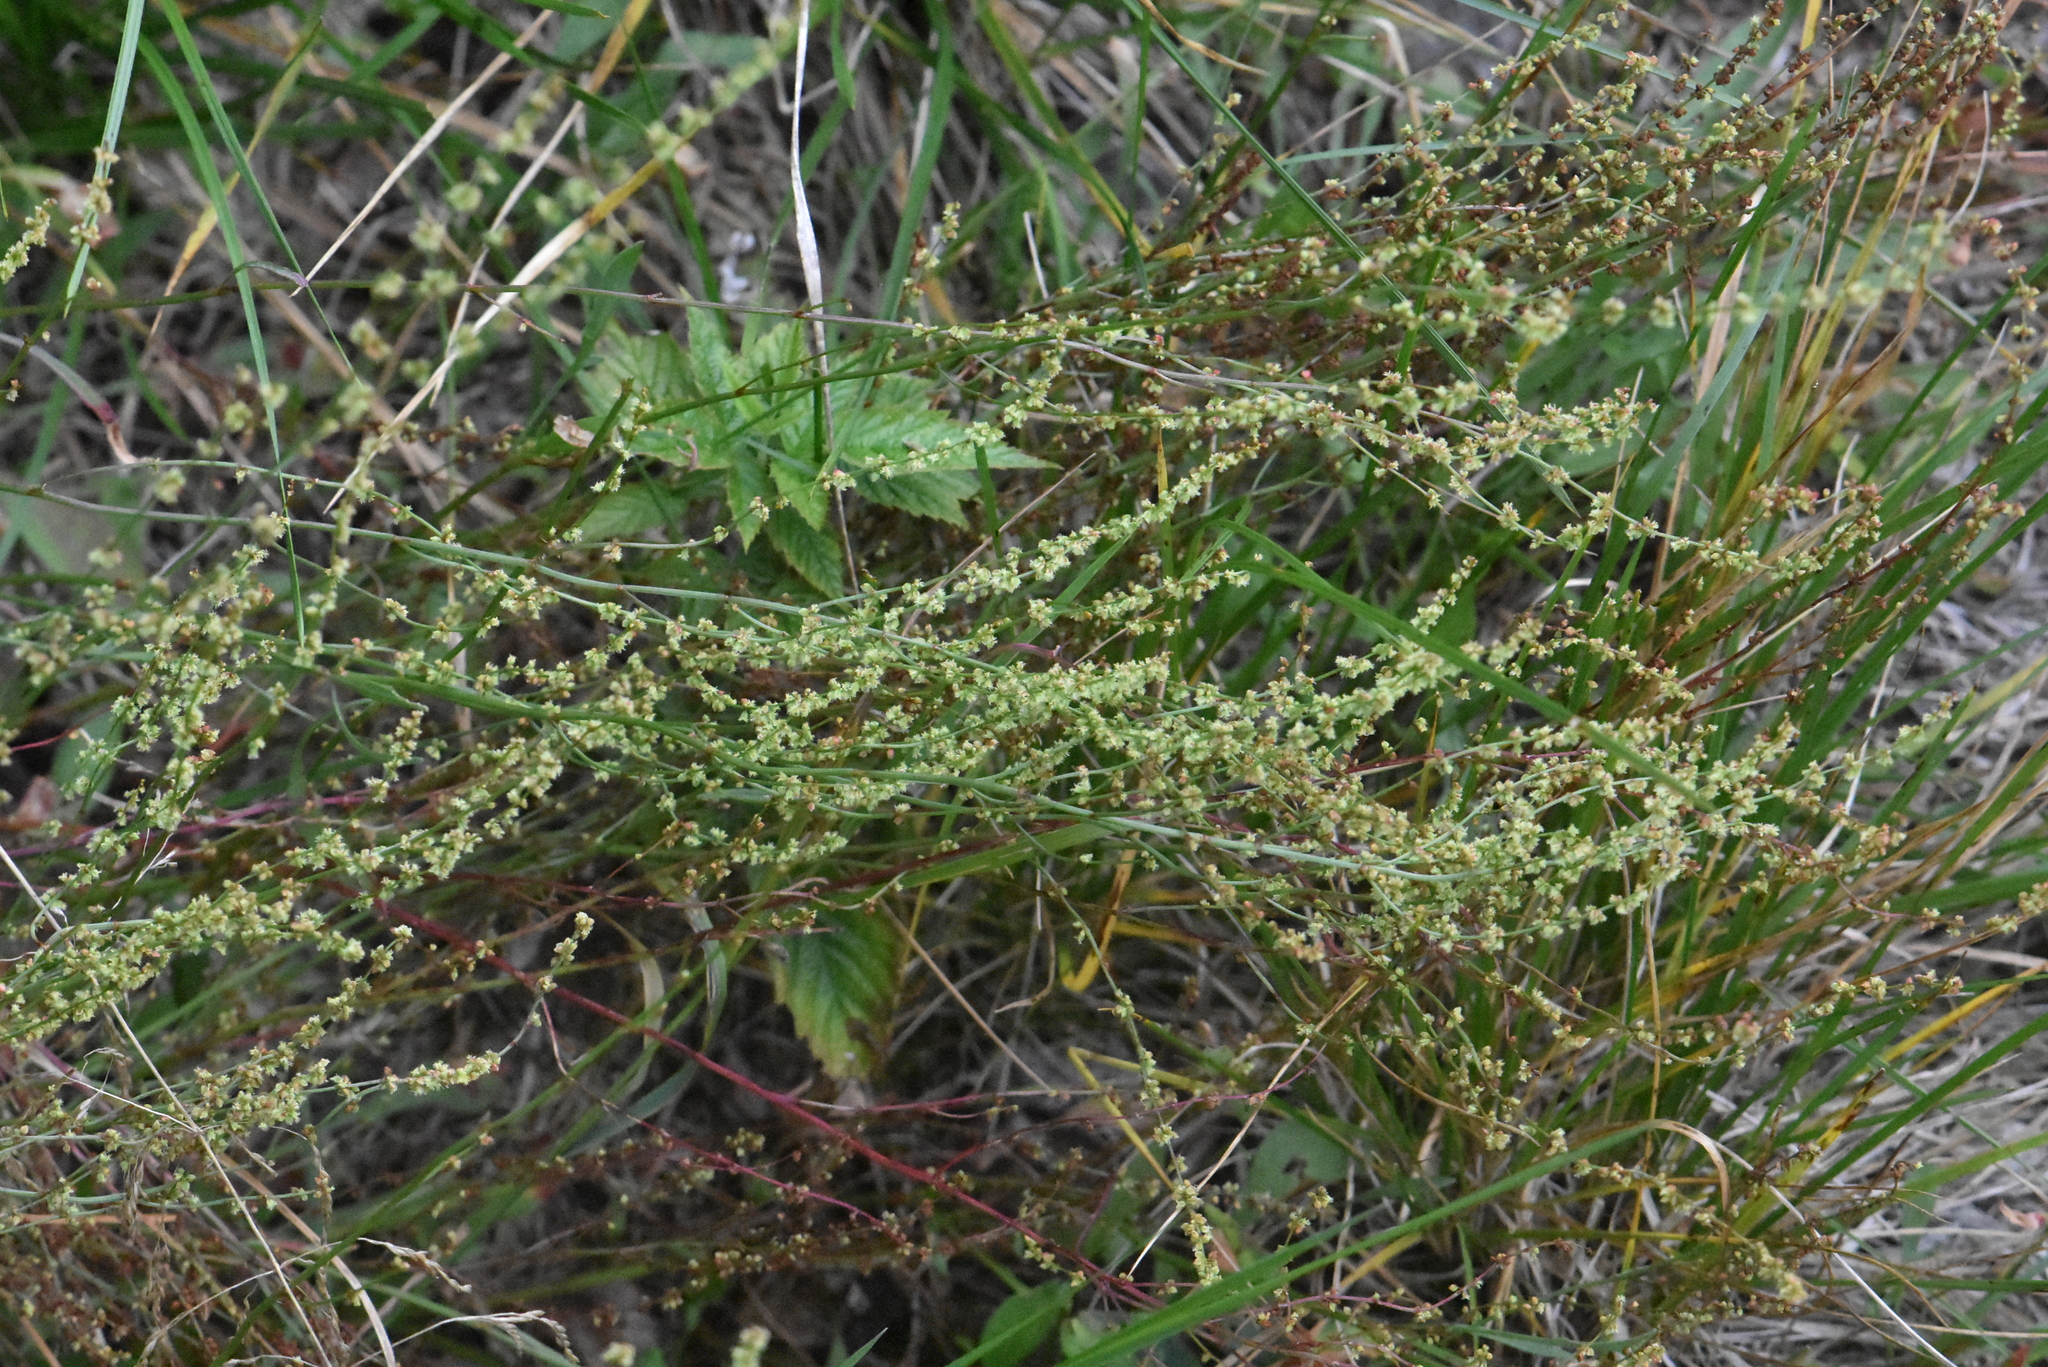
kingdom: Plantae
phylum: Tracheophyta
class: Magnoliopsida
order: Caryophyllales
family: Polygonaceae
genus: Rumex
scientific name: Rumex acetosella
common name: Common sheep sorrel
